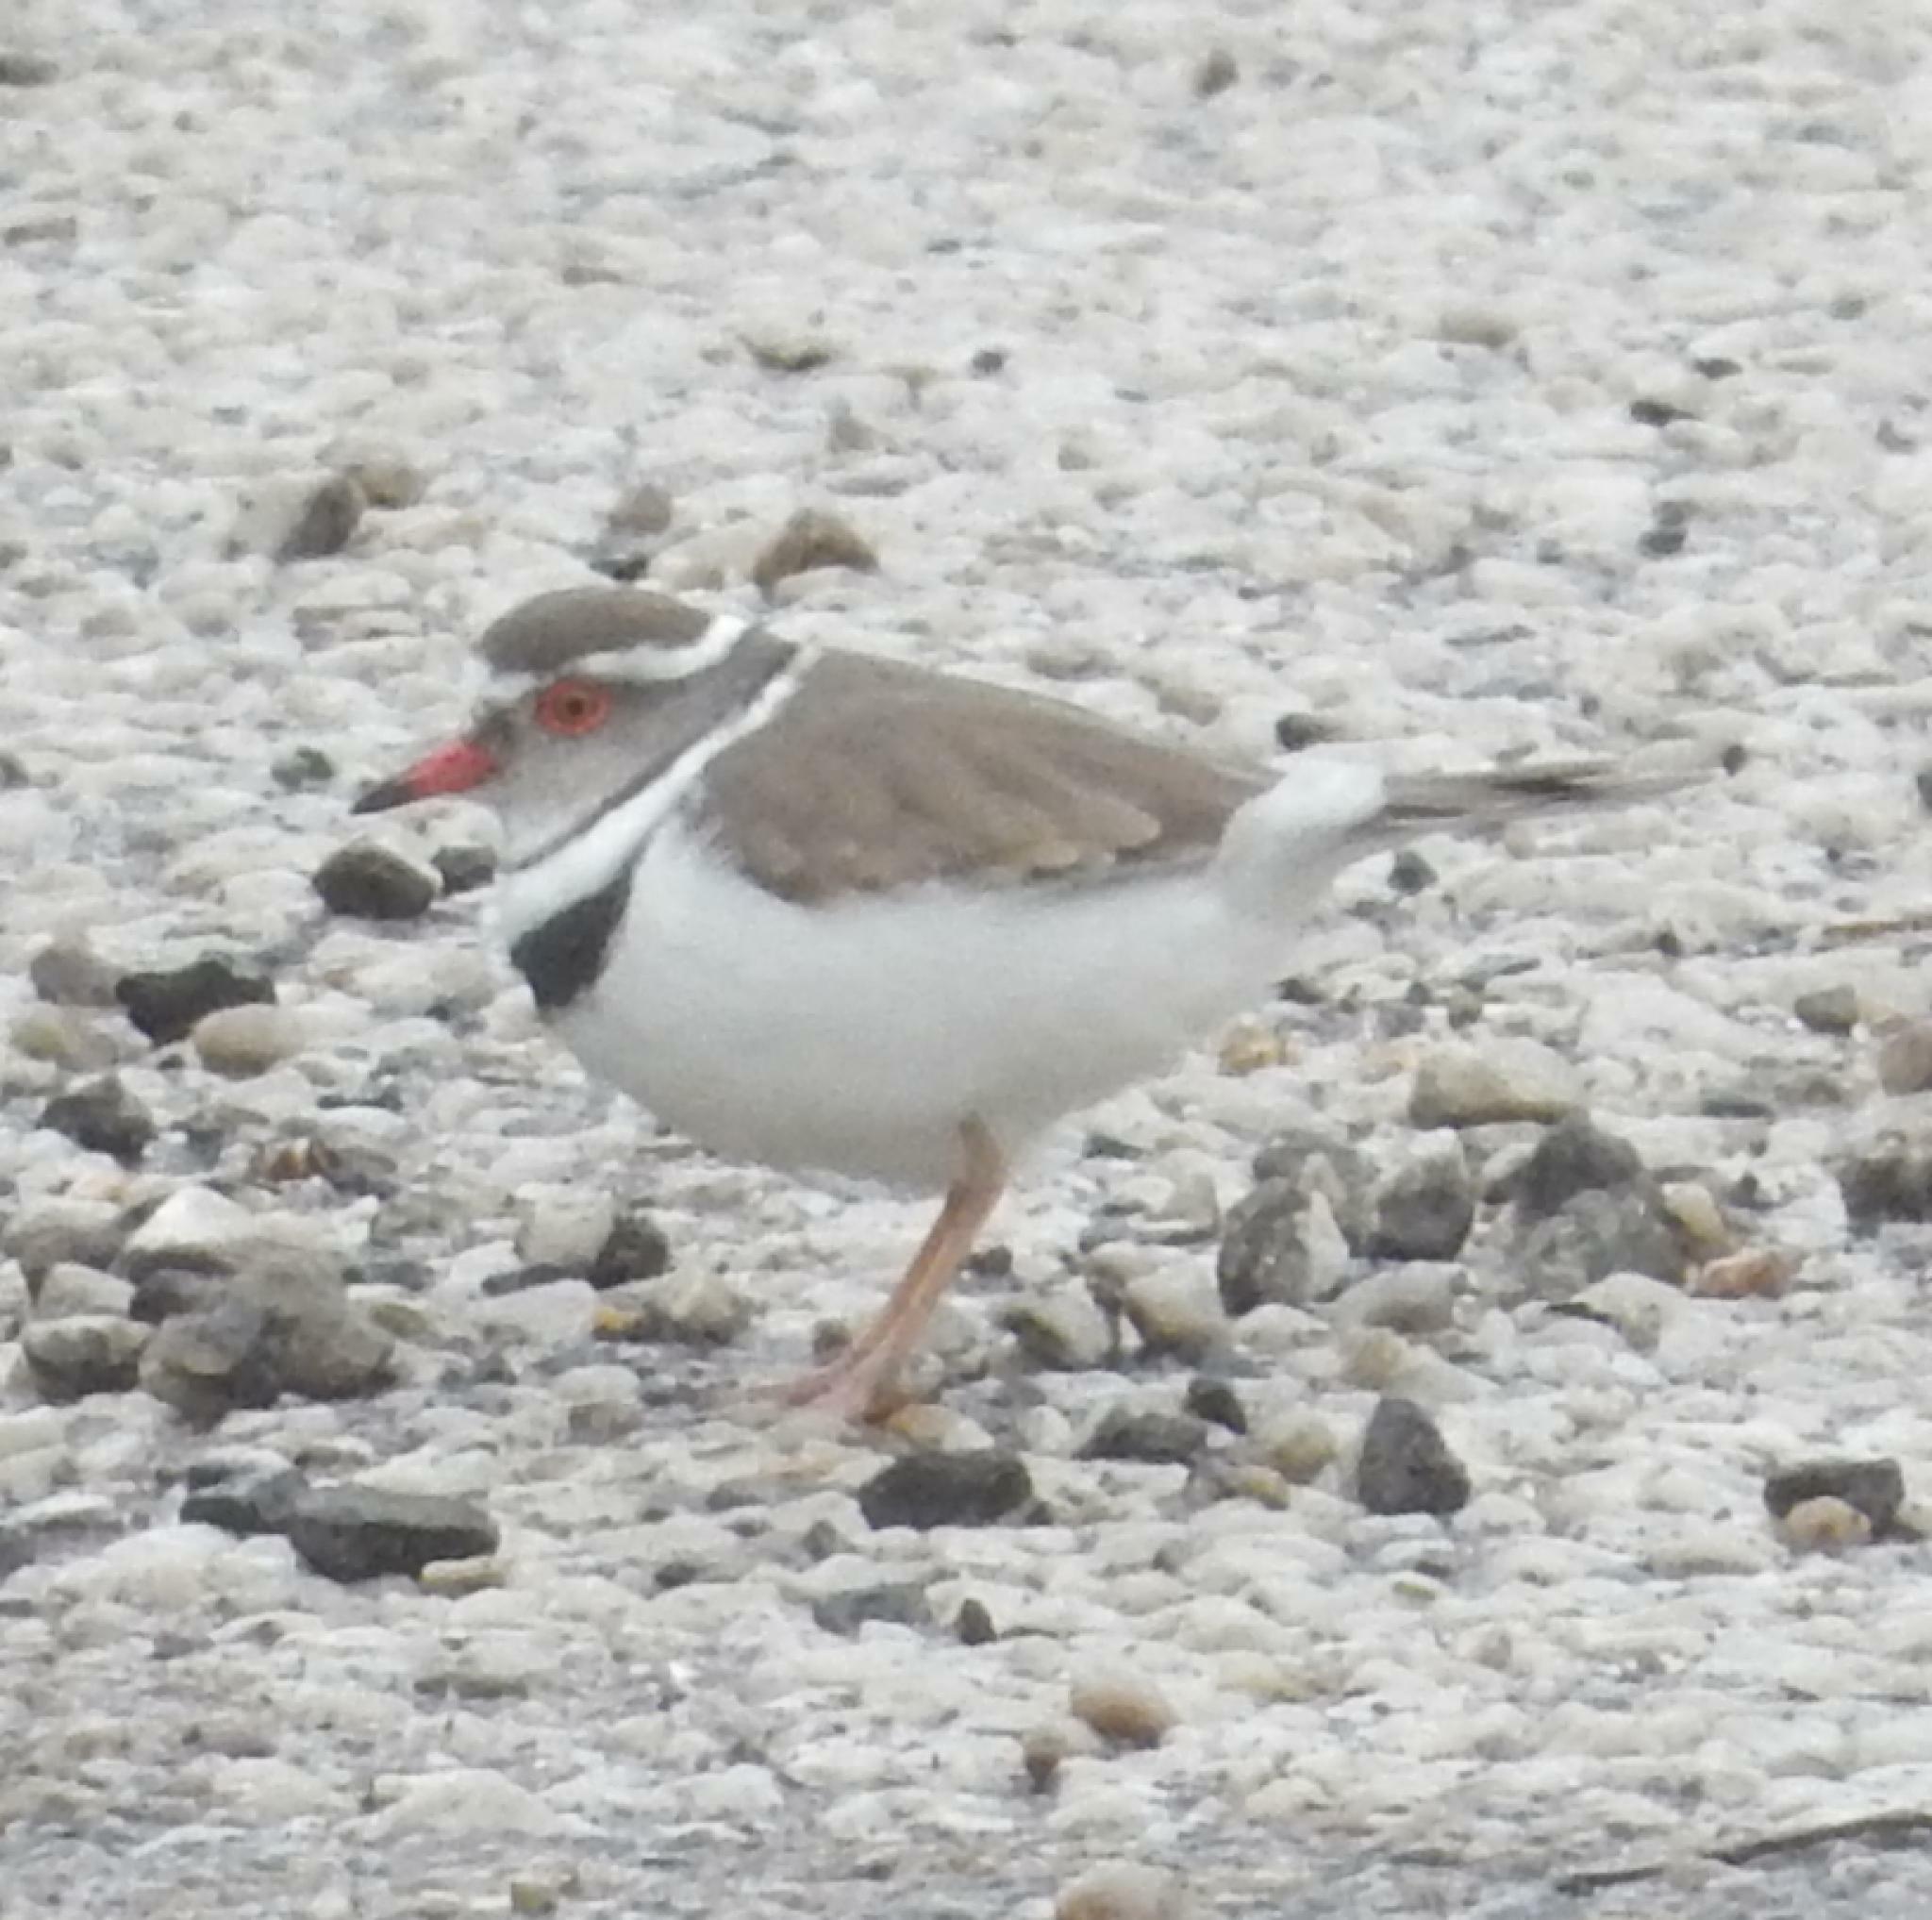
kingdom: Animalia
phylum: Chordata
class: Aves
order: Charadriiformes
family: Charadriidae
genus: Charadrius
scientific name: Charadrius tricollaris
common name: Three-banded plover
